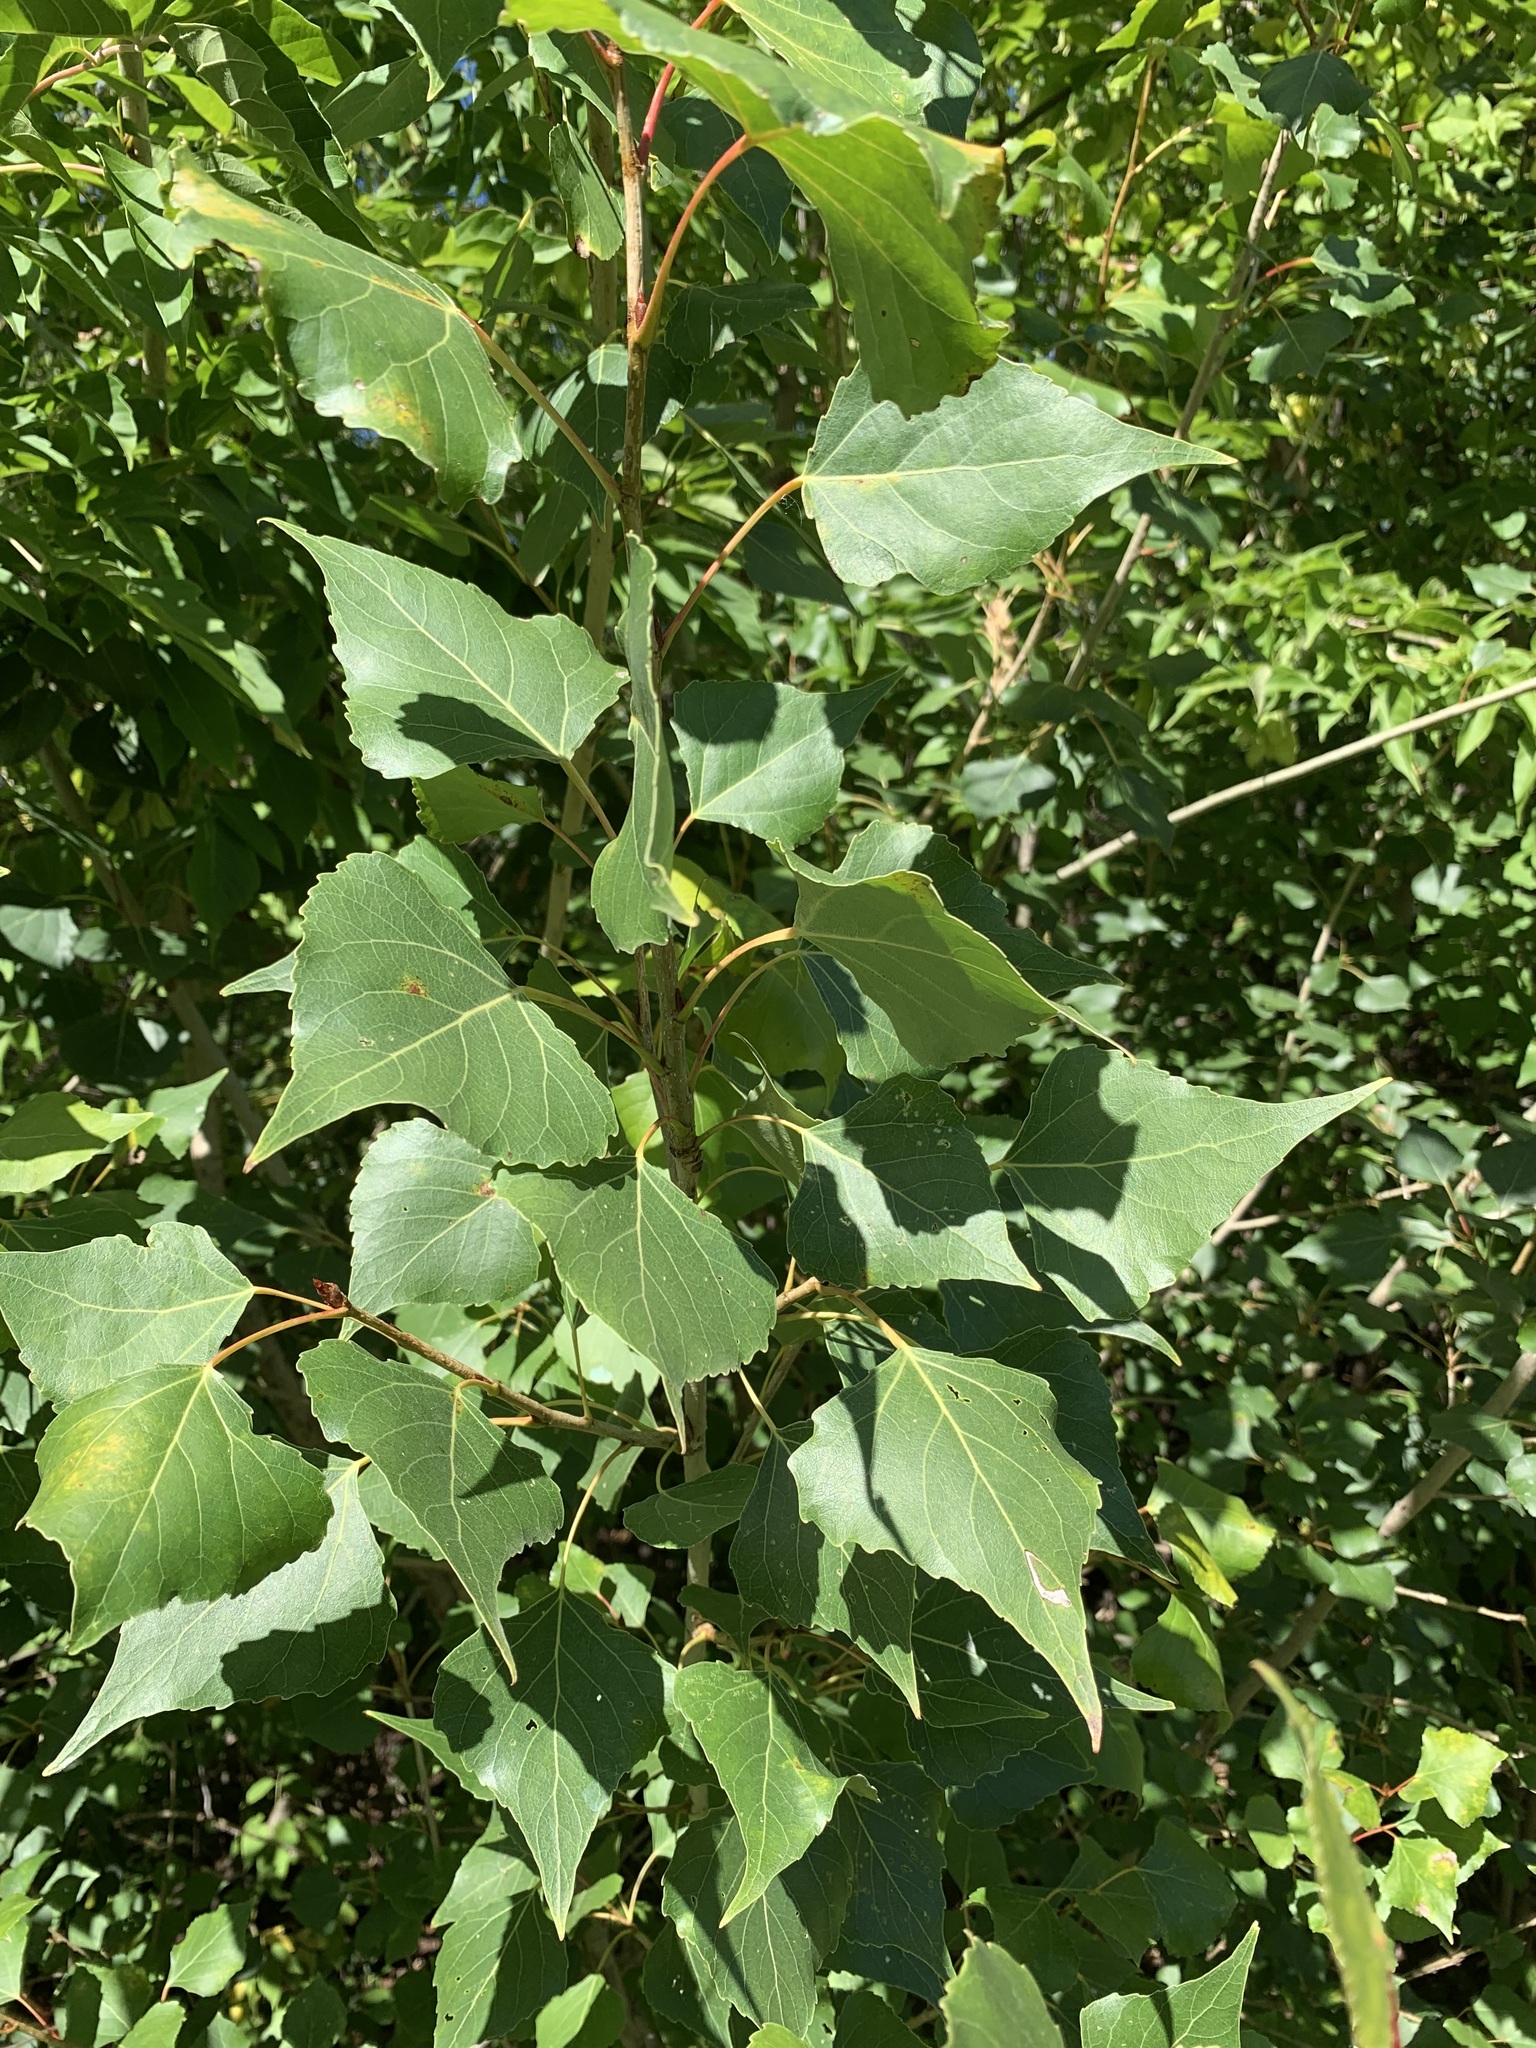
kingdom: Plantae
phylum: Tracheophyta
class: Magnoliopsida
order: Malpighiales
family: Salicaceae
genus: Populus
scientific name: Populus nigra
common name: Black poplar
